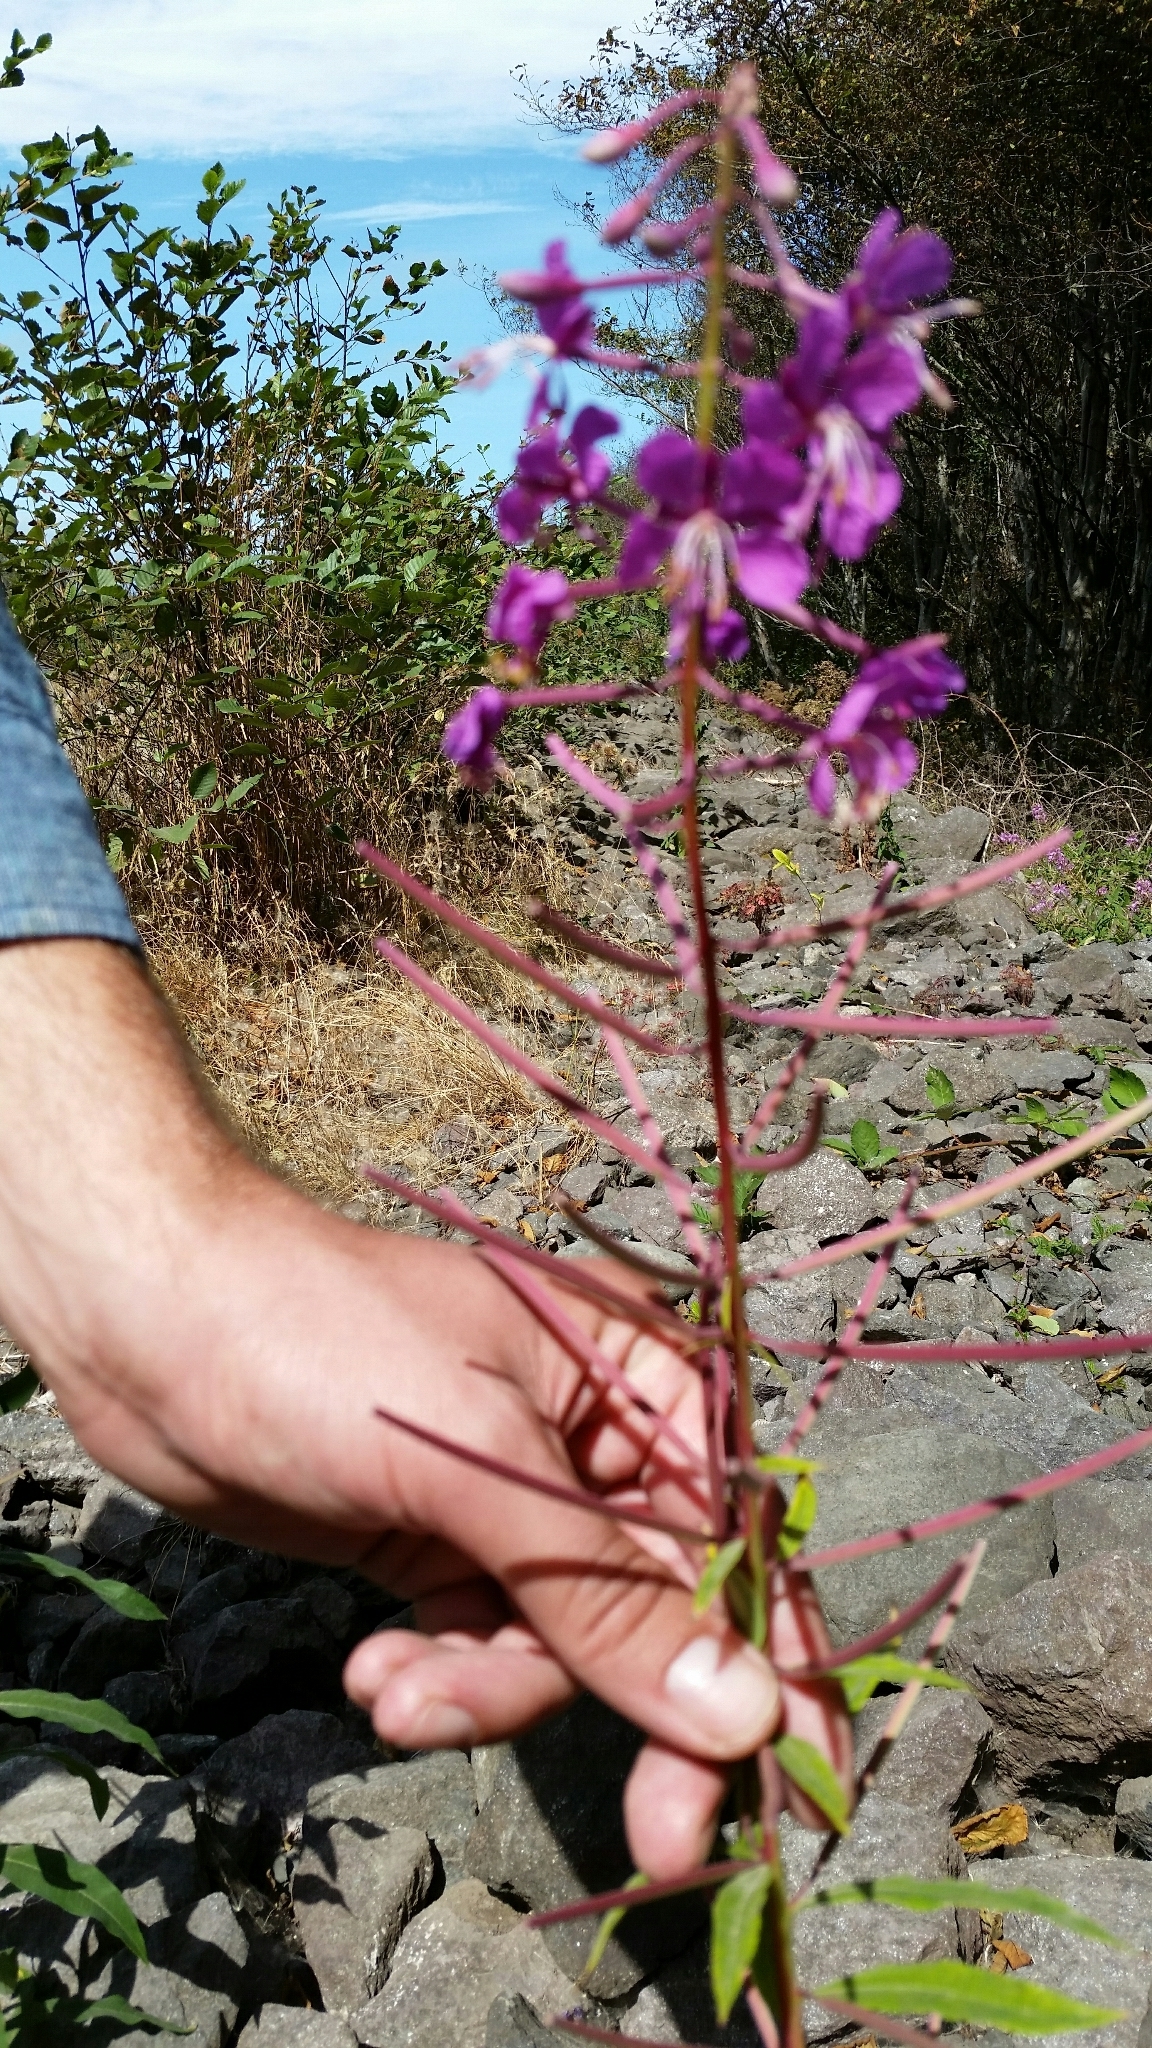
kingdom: Plantae
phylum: Tracheophyta
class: Magnoliopsida
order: Myrtales
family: Onagraceae
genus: Chamaenerion
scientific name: Chamaenerion angustifolium
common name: Fireweed
